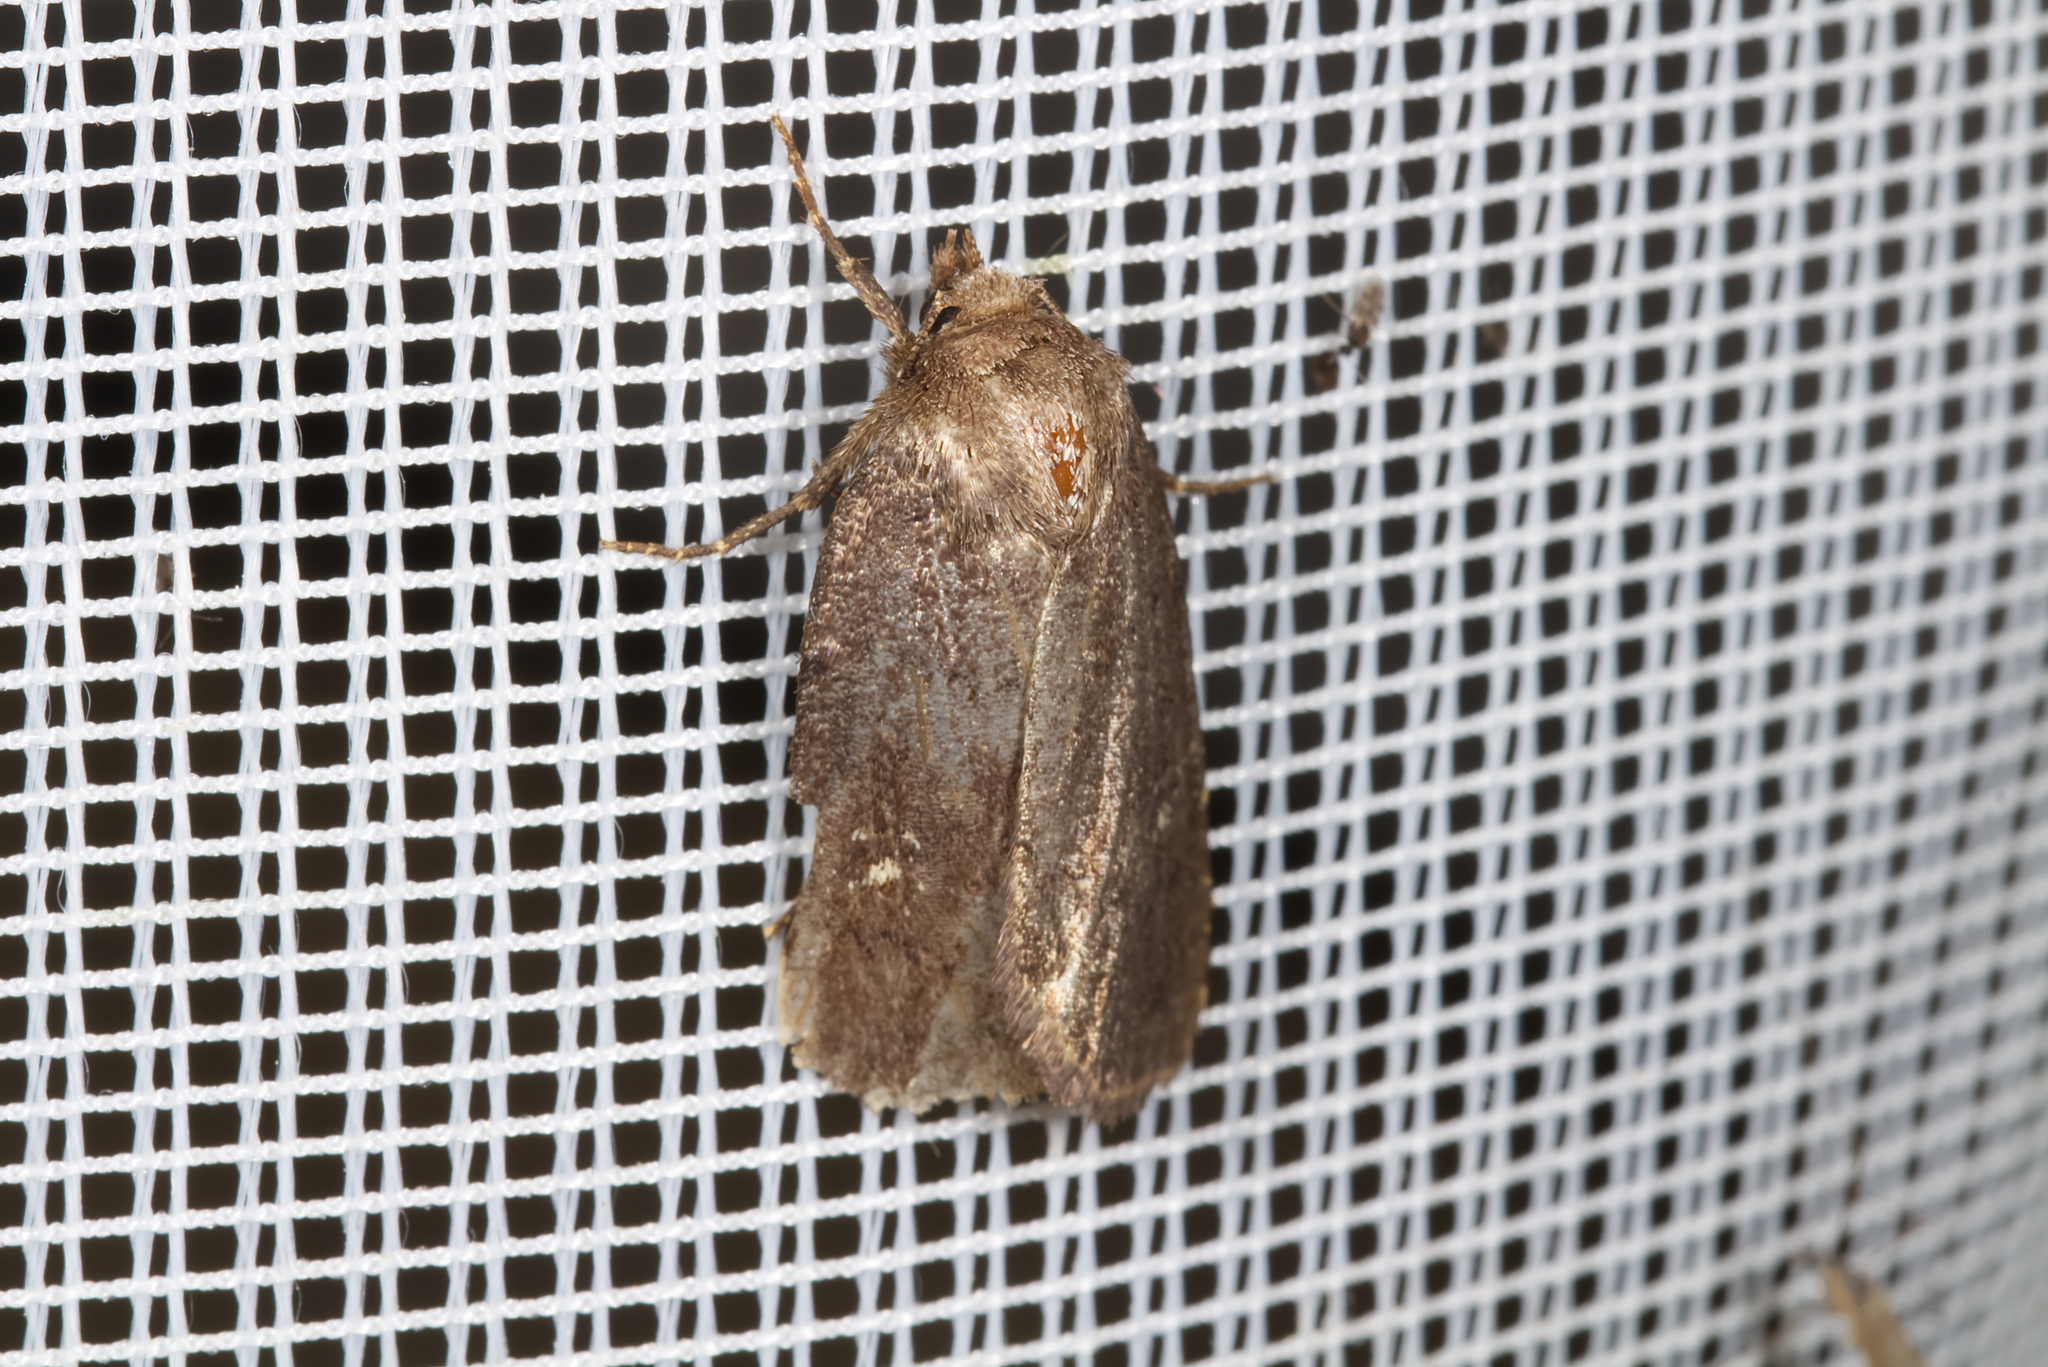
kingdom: Animalia
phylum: Arthropoda
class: Insecta
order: Lepidoptera
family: Noctuidae
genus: Charanyca
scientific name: Charanyca ferruginea
